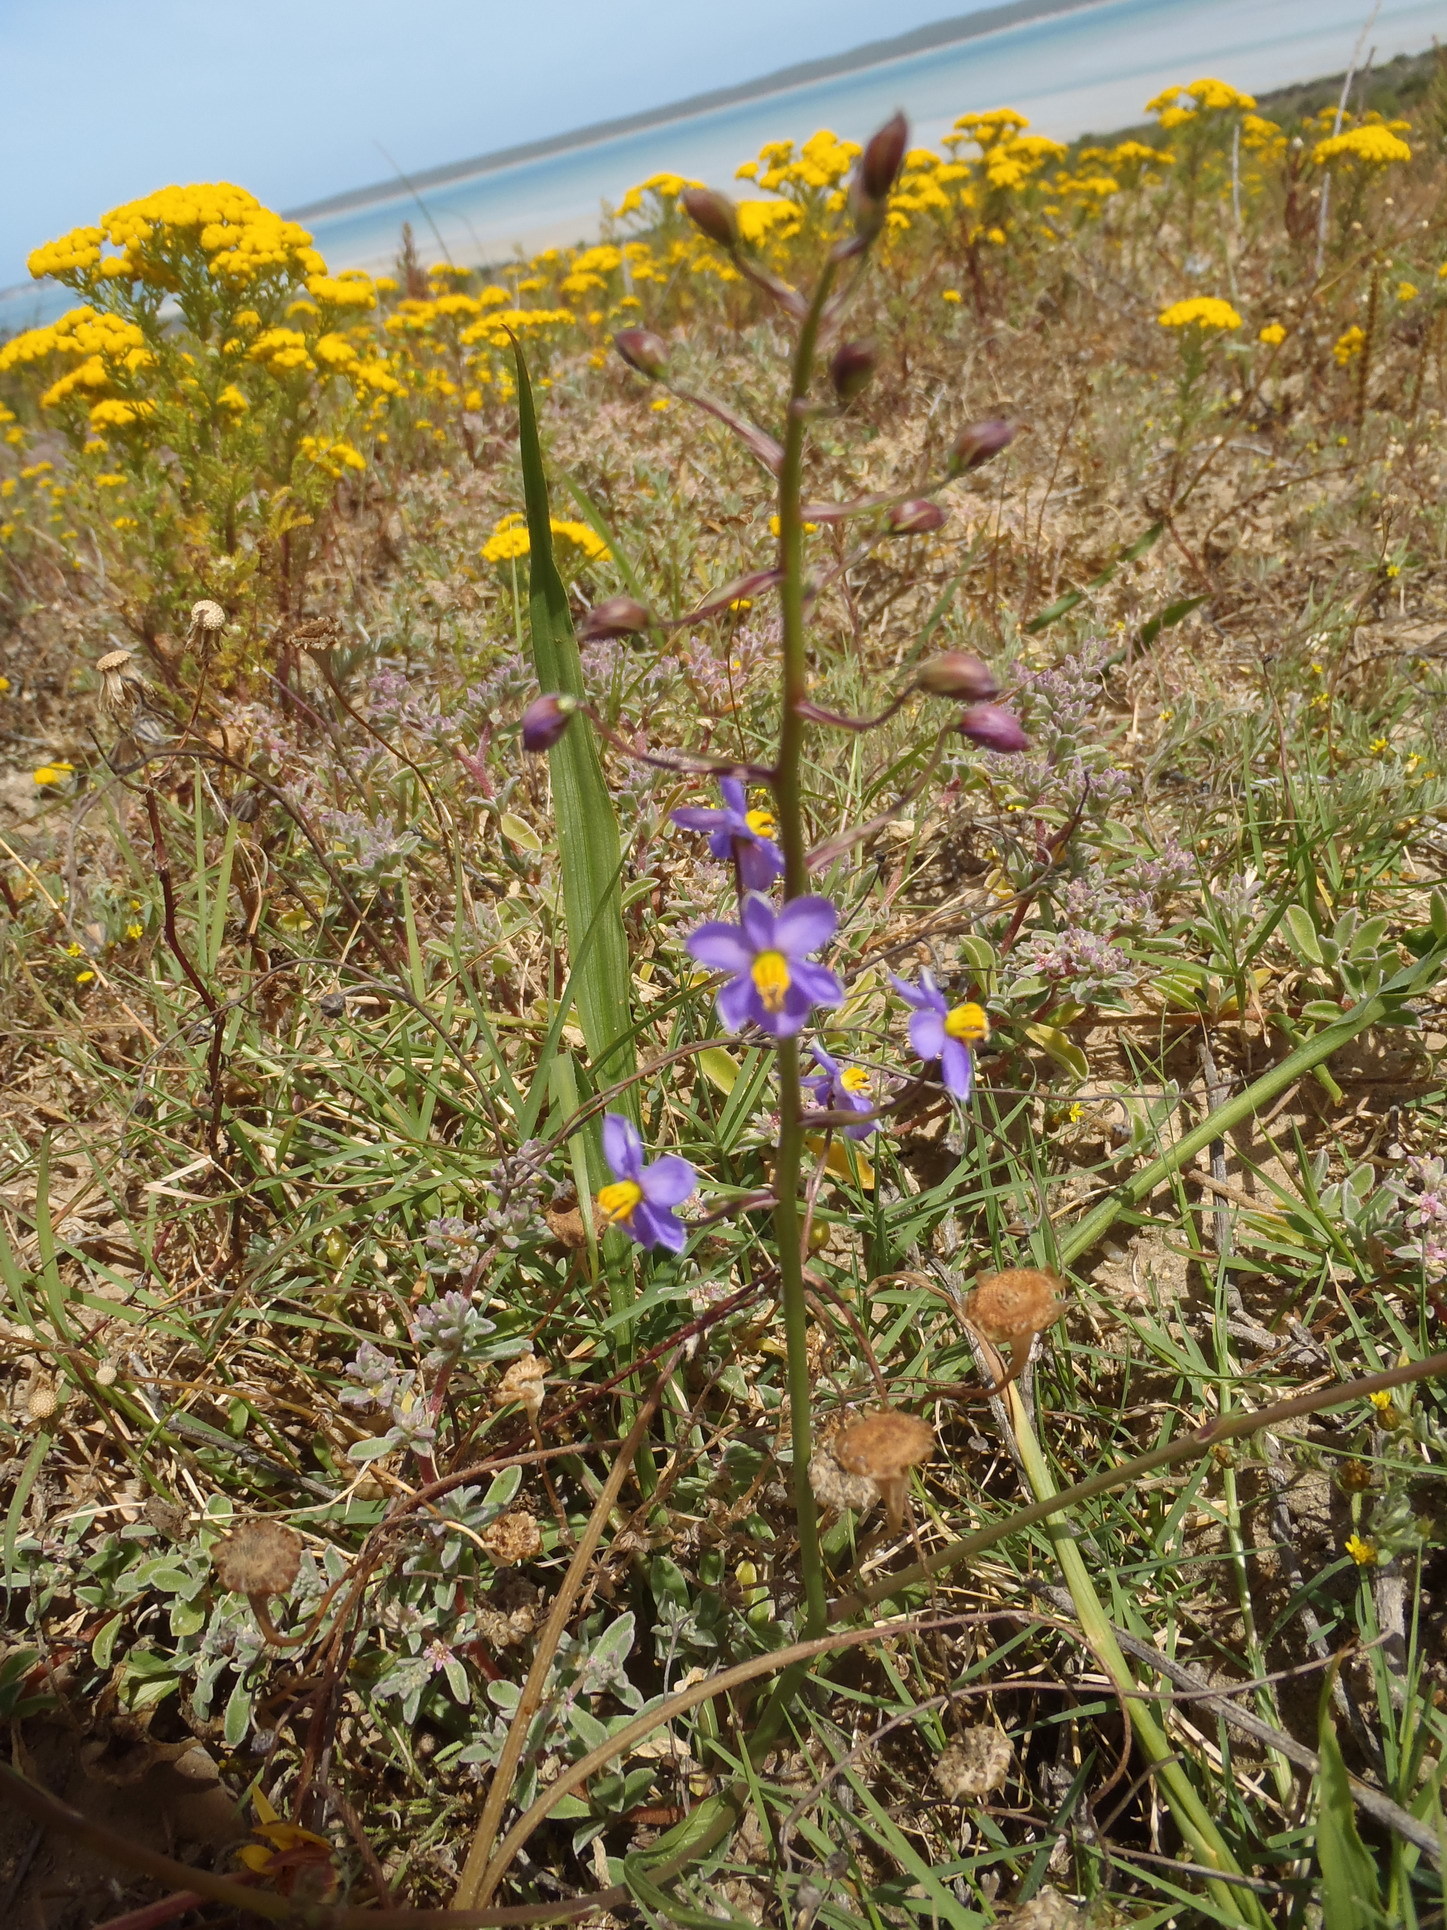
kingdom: Plantae
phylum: Tracheophyta
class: Liliopsida
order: Asparagales
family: Tecophilaeaceae
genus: Cyanella
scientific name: Cyanella hyacinthoides
